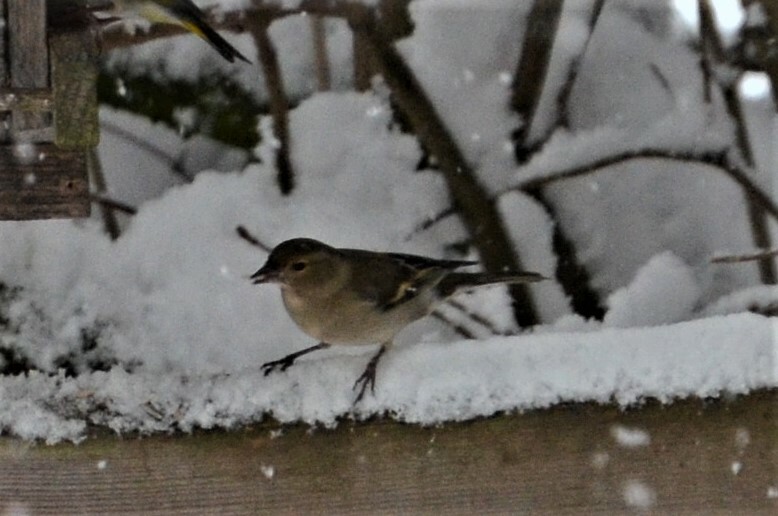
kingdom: Animalia
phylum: Chordata
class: Aves
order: Passeriformes
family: Fringillidae
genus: Fringilla
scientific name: Fringilla coelebs
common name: Common chaffinch
